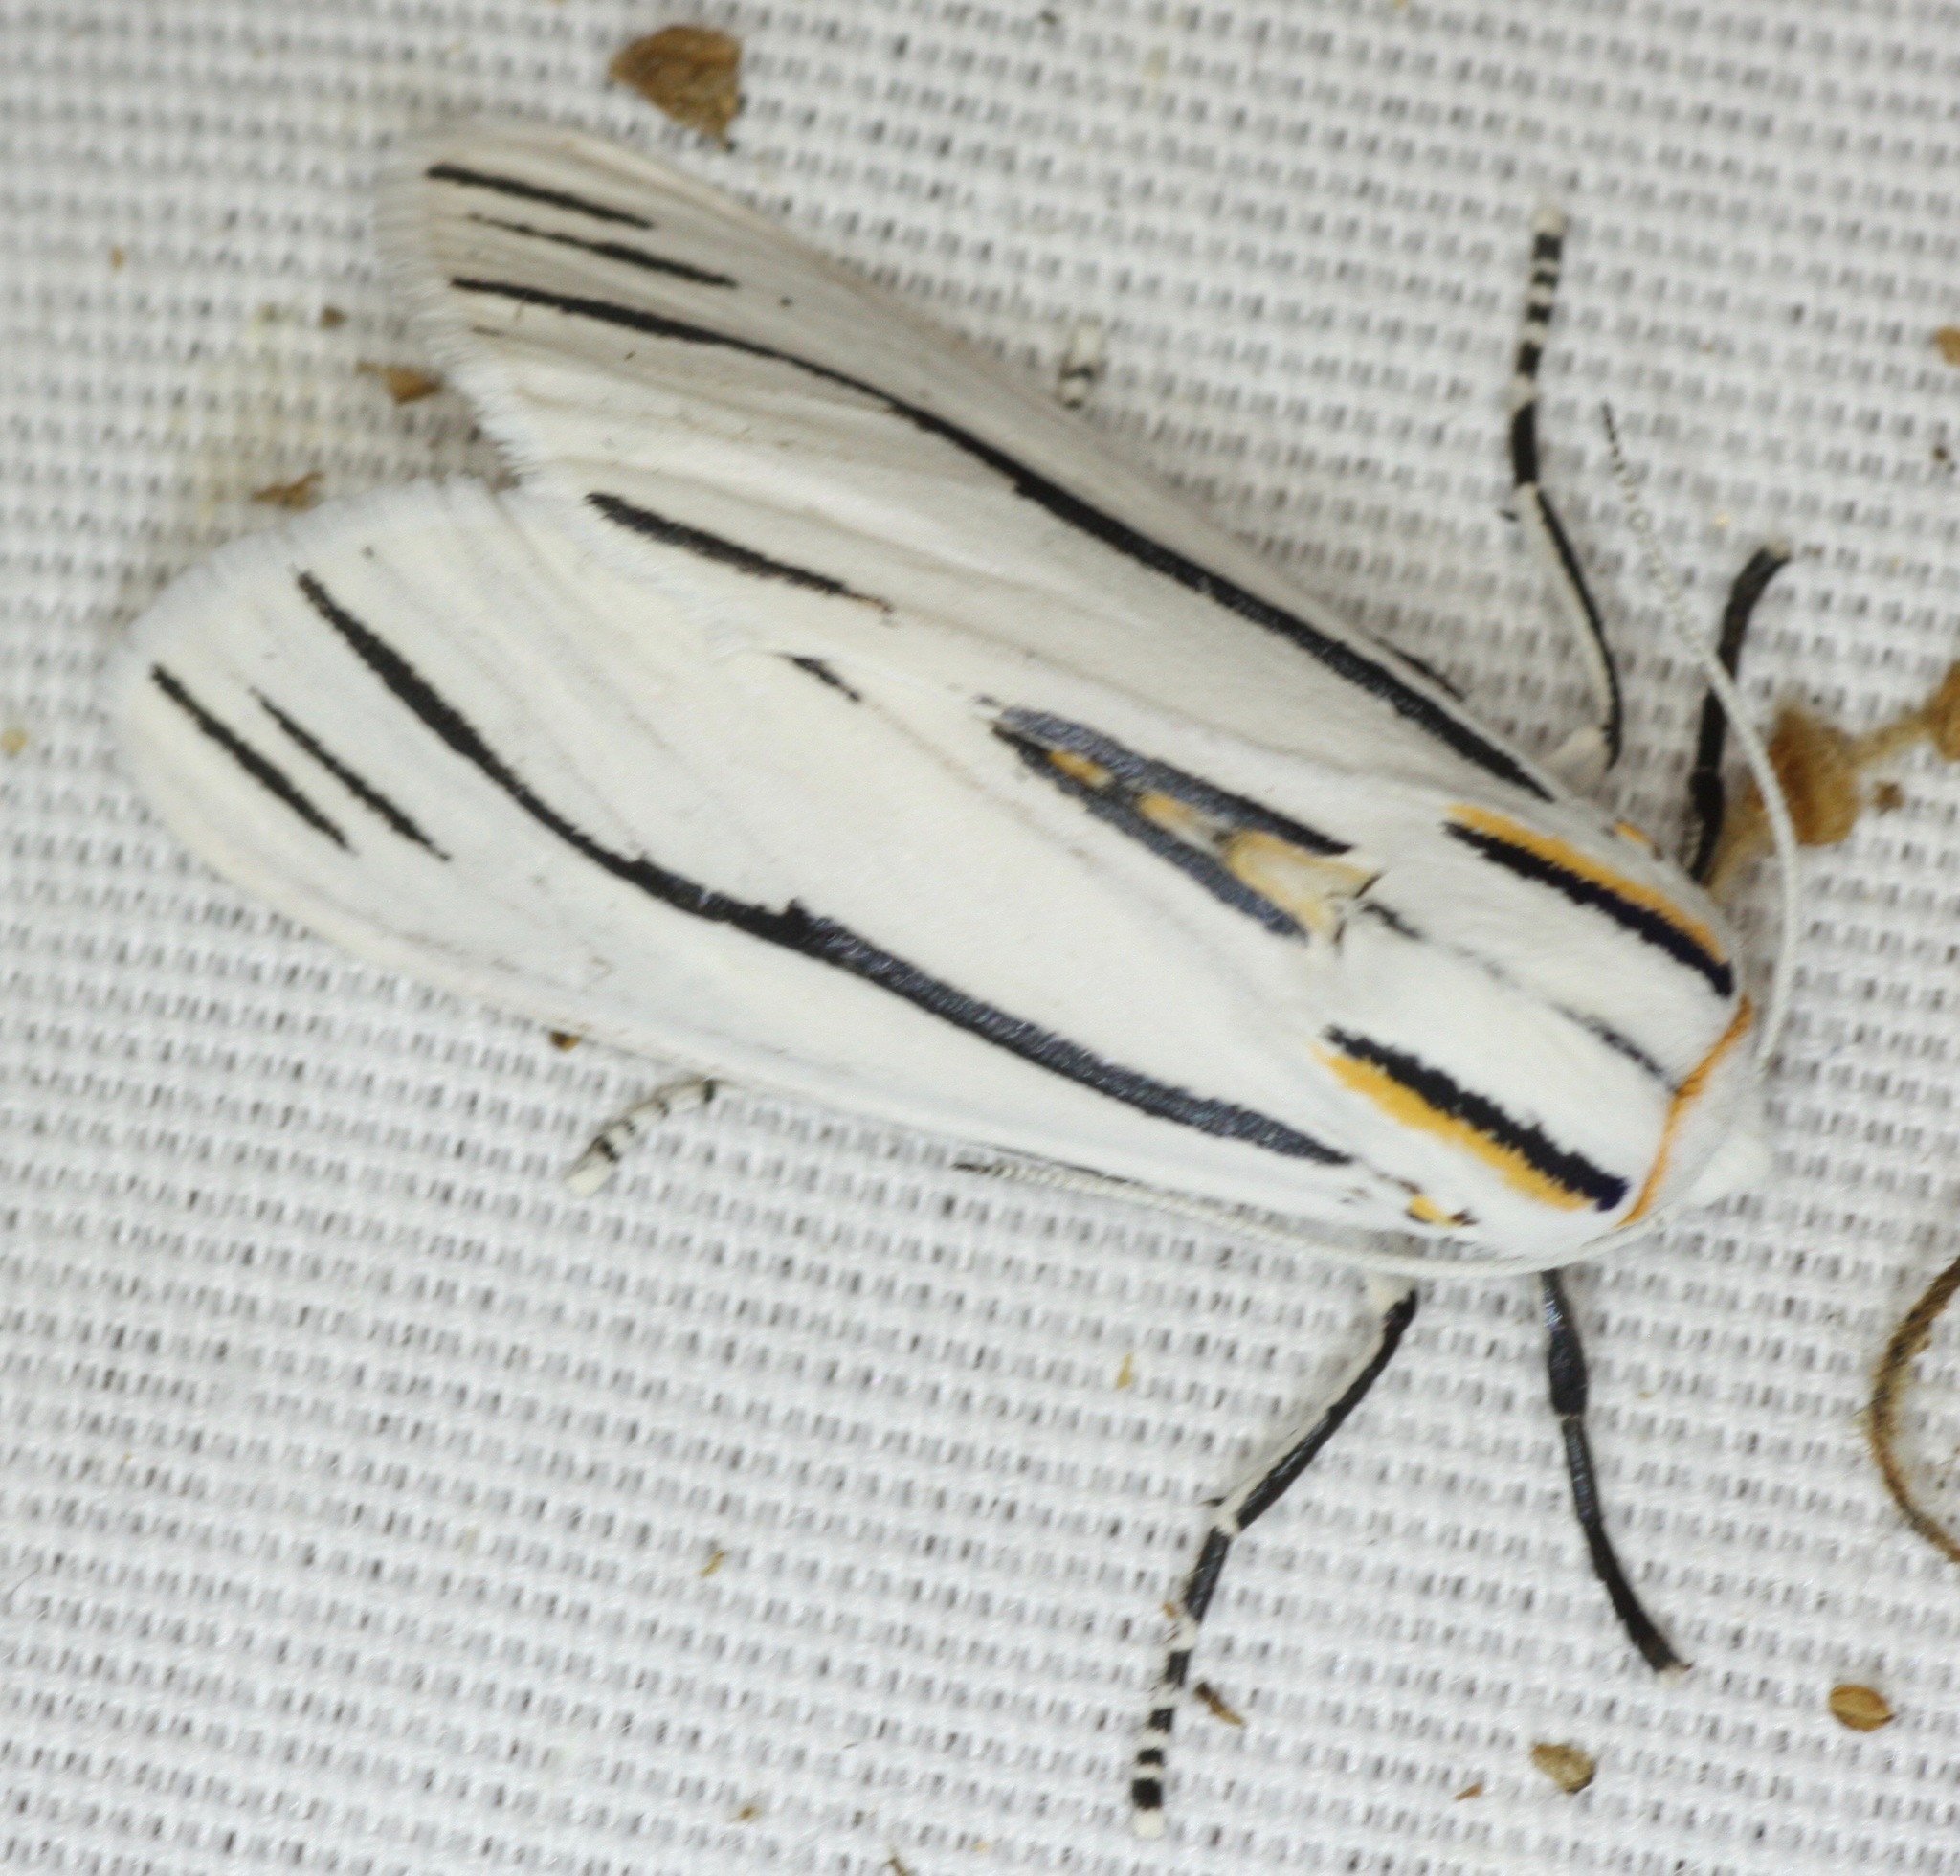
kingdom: Animalia
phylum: Arthropoda
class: Insecta
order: Lepidoptera
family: Erebidae
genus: Ectypia
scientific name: Ectypia clio
